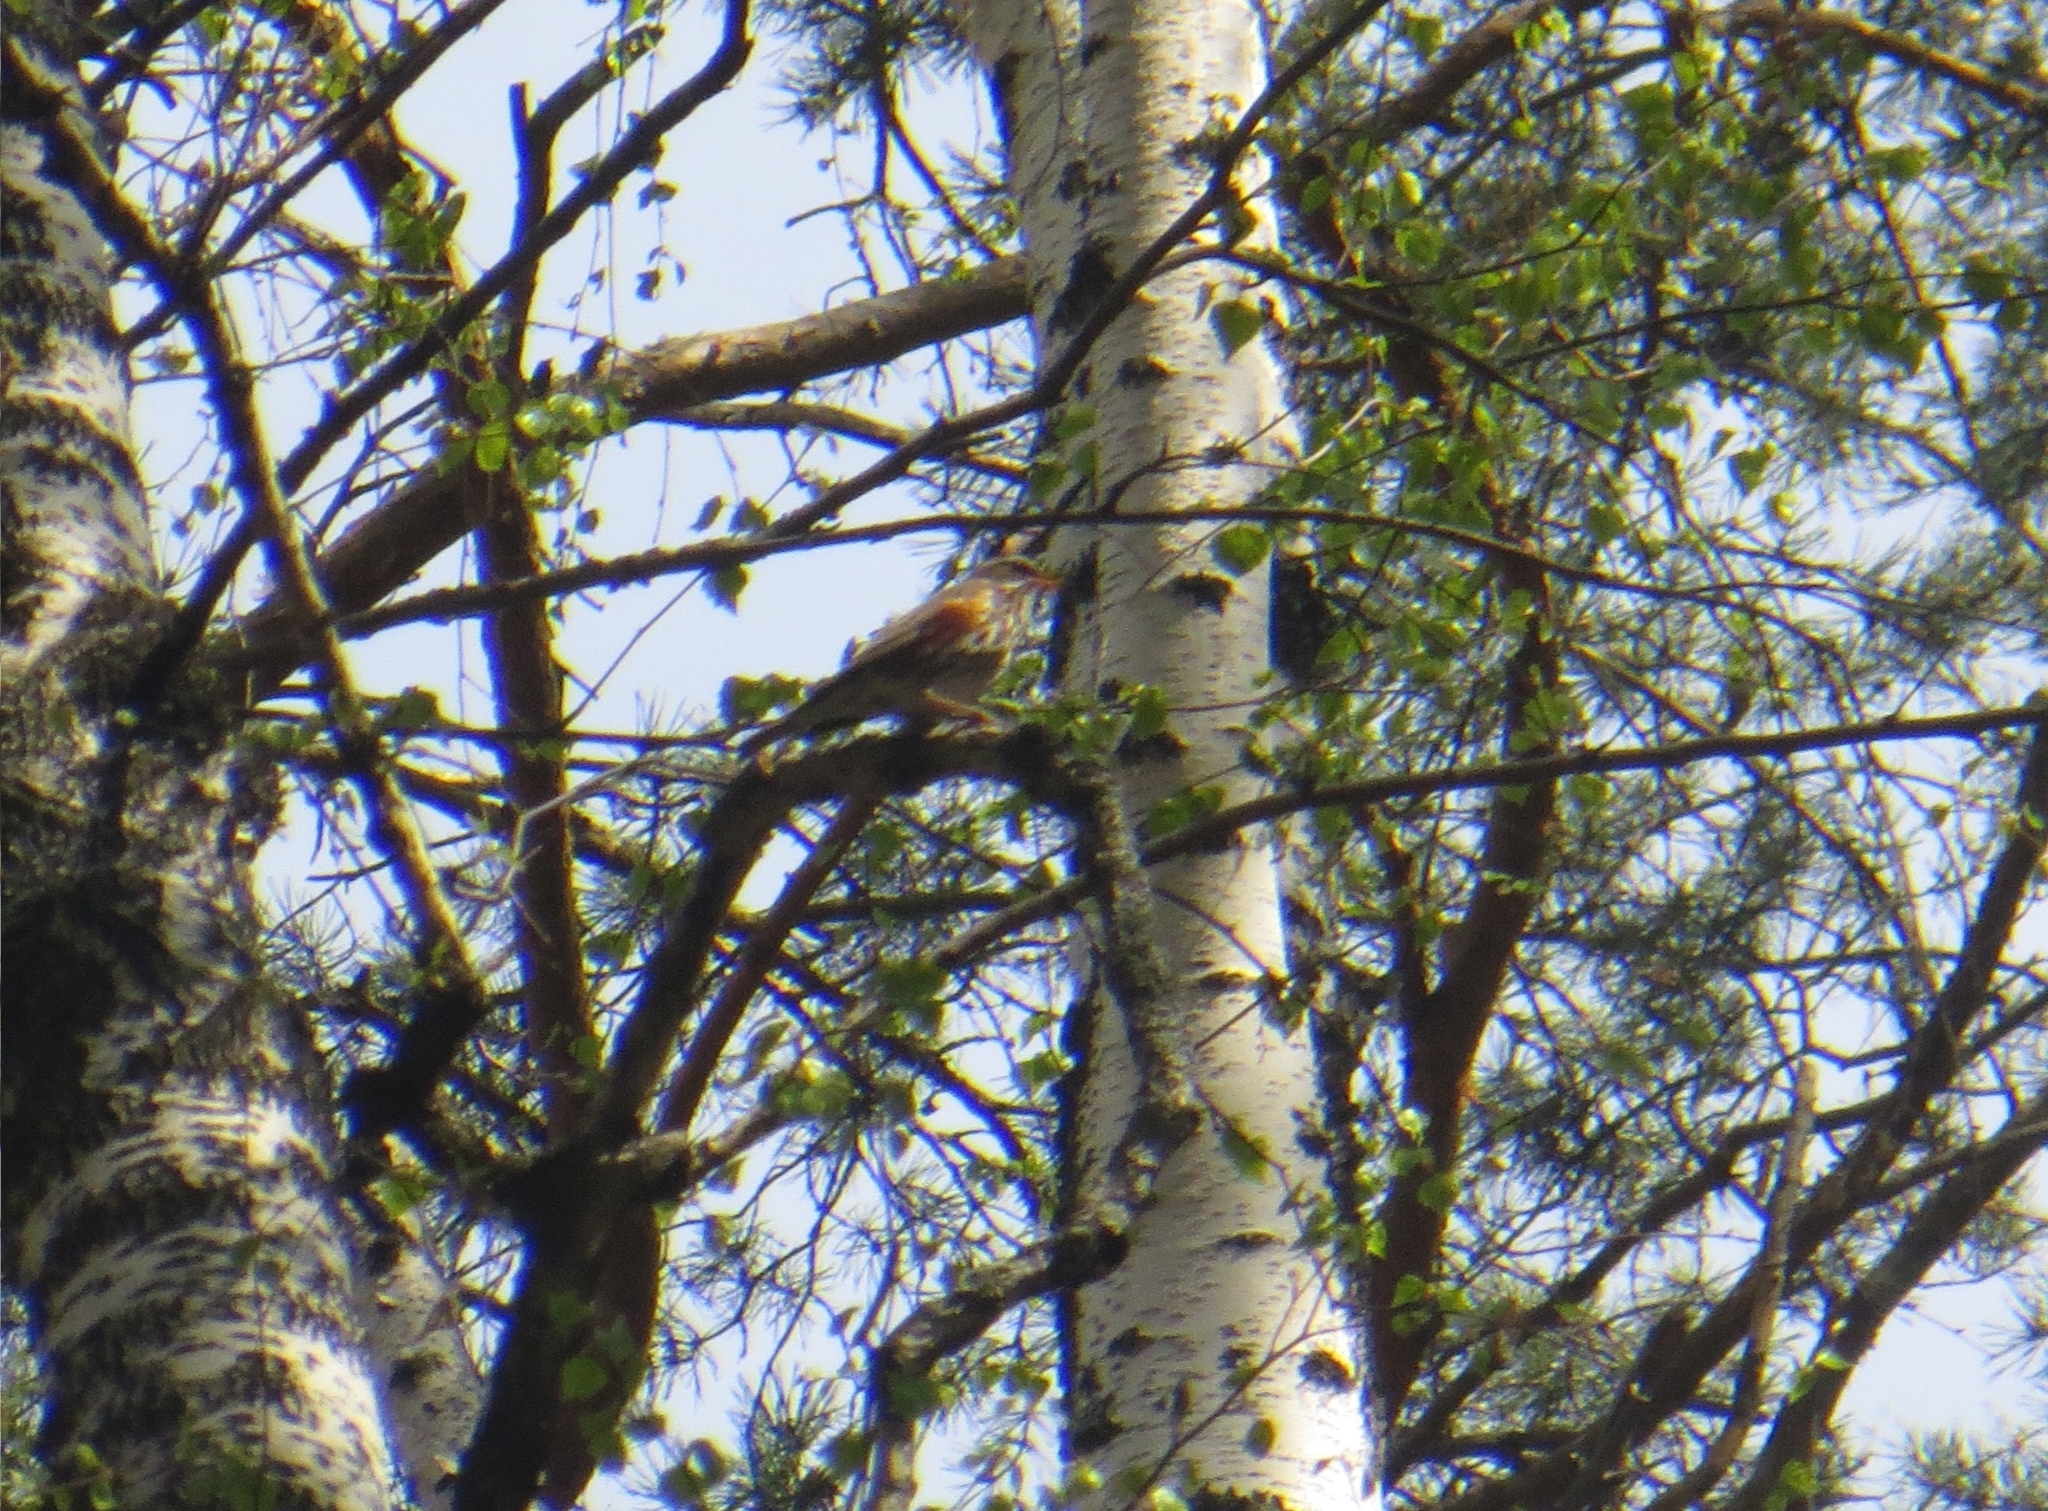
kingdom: Animalia
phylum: Chordata
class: Aves
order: Passeriformes
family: Turdidae
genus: Turdus
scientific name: Turdus iliacus
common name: Redwing
